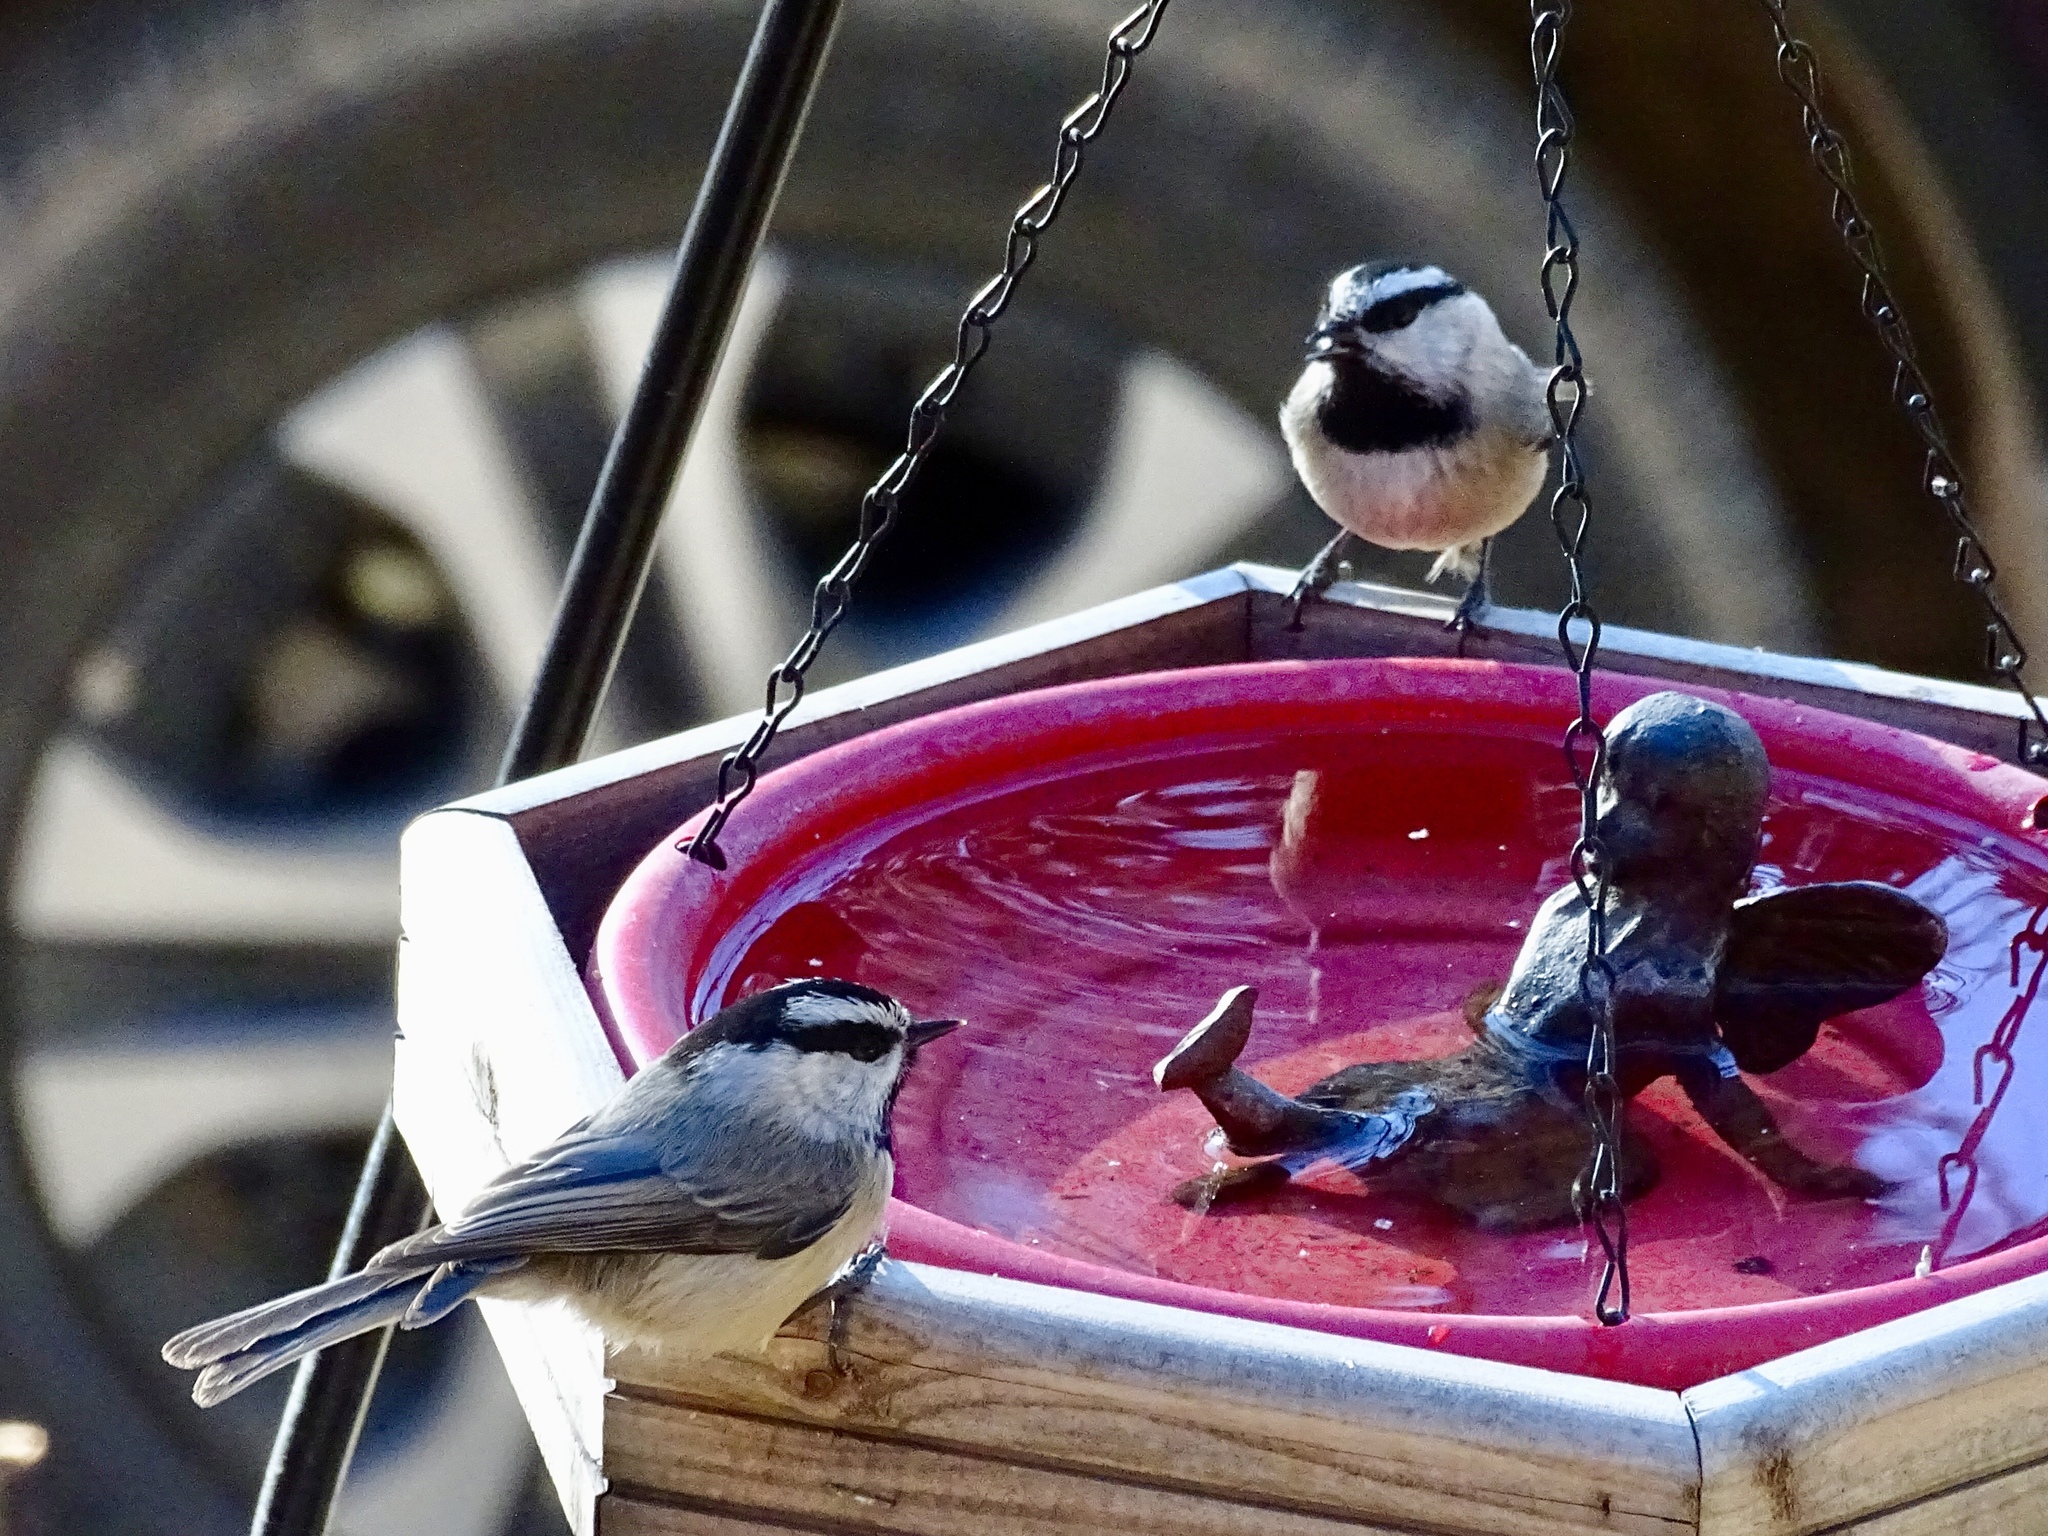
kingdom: Animalia
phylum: Chordata
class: Aves
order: Passeriformes
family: Paridae
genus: Poecile
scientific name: Poecile gambeli
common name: Mountain chickadee
